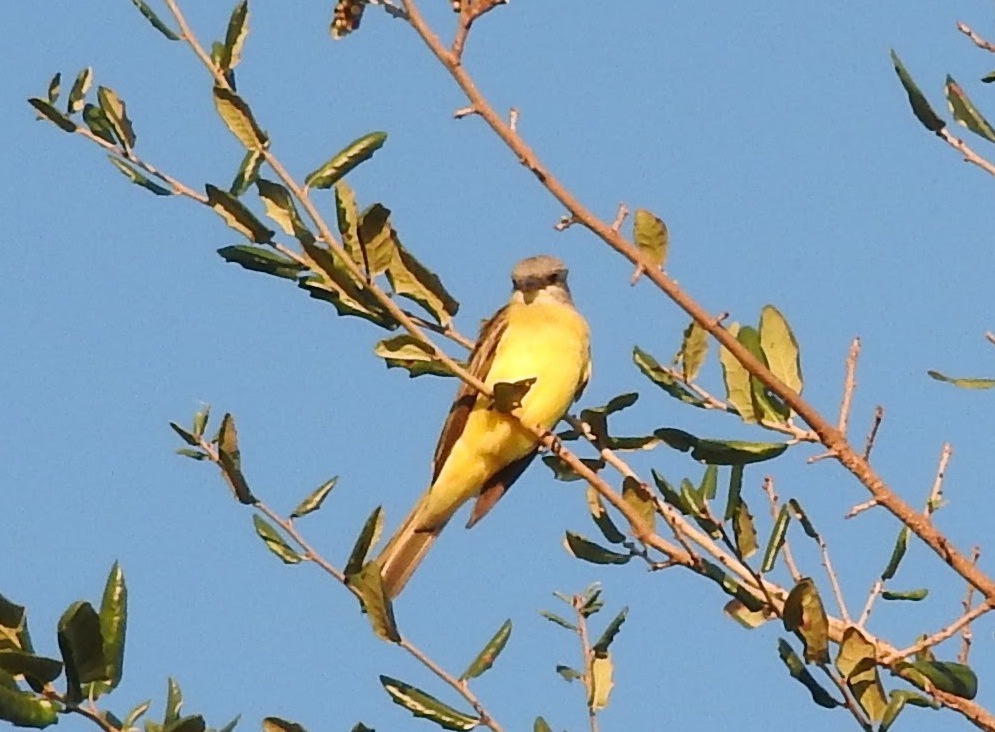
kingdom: Animalia
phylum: Chordata
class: Aves
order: Passeriformes
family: Tyrannidae
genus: Tyrannus
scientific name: Tyrannus couchii
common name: Couch's kingbird
